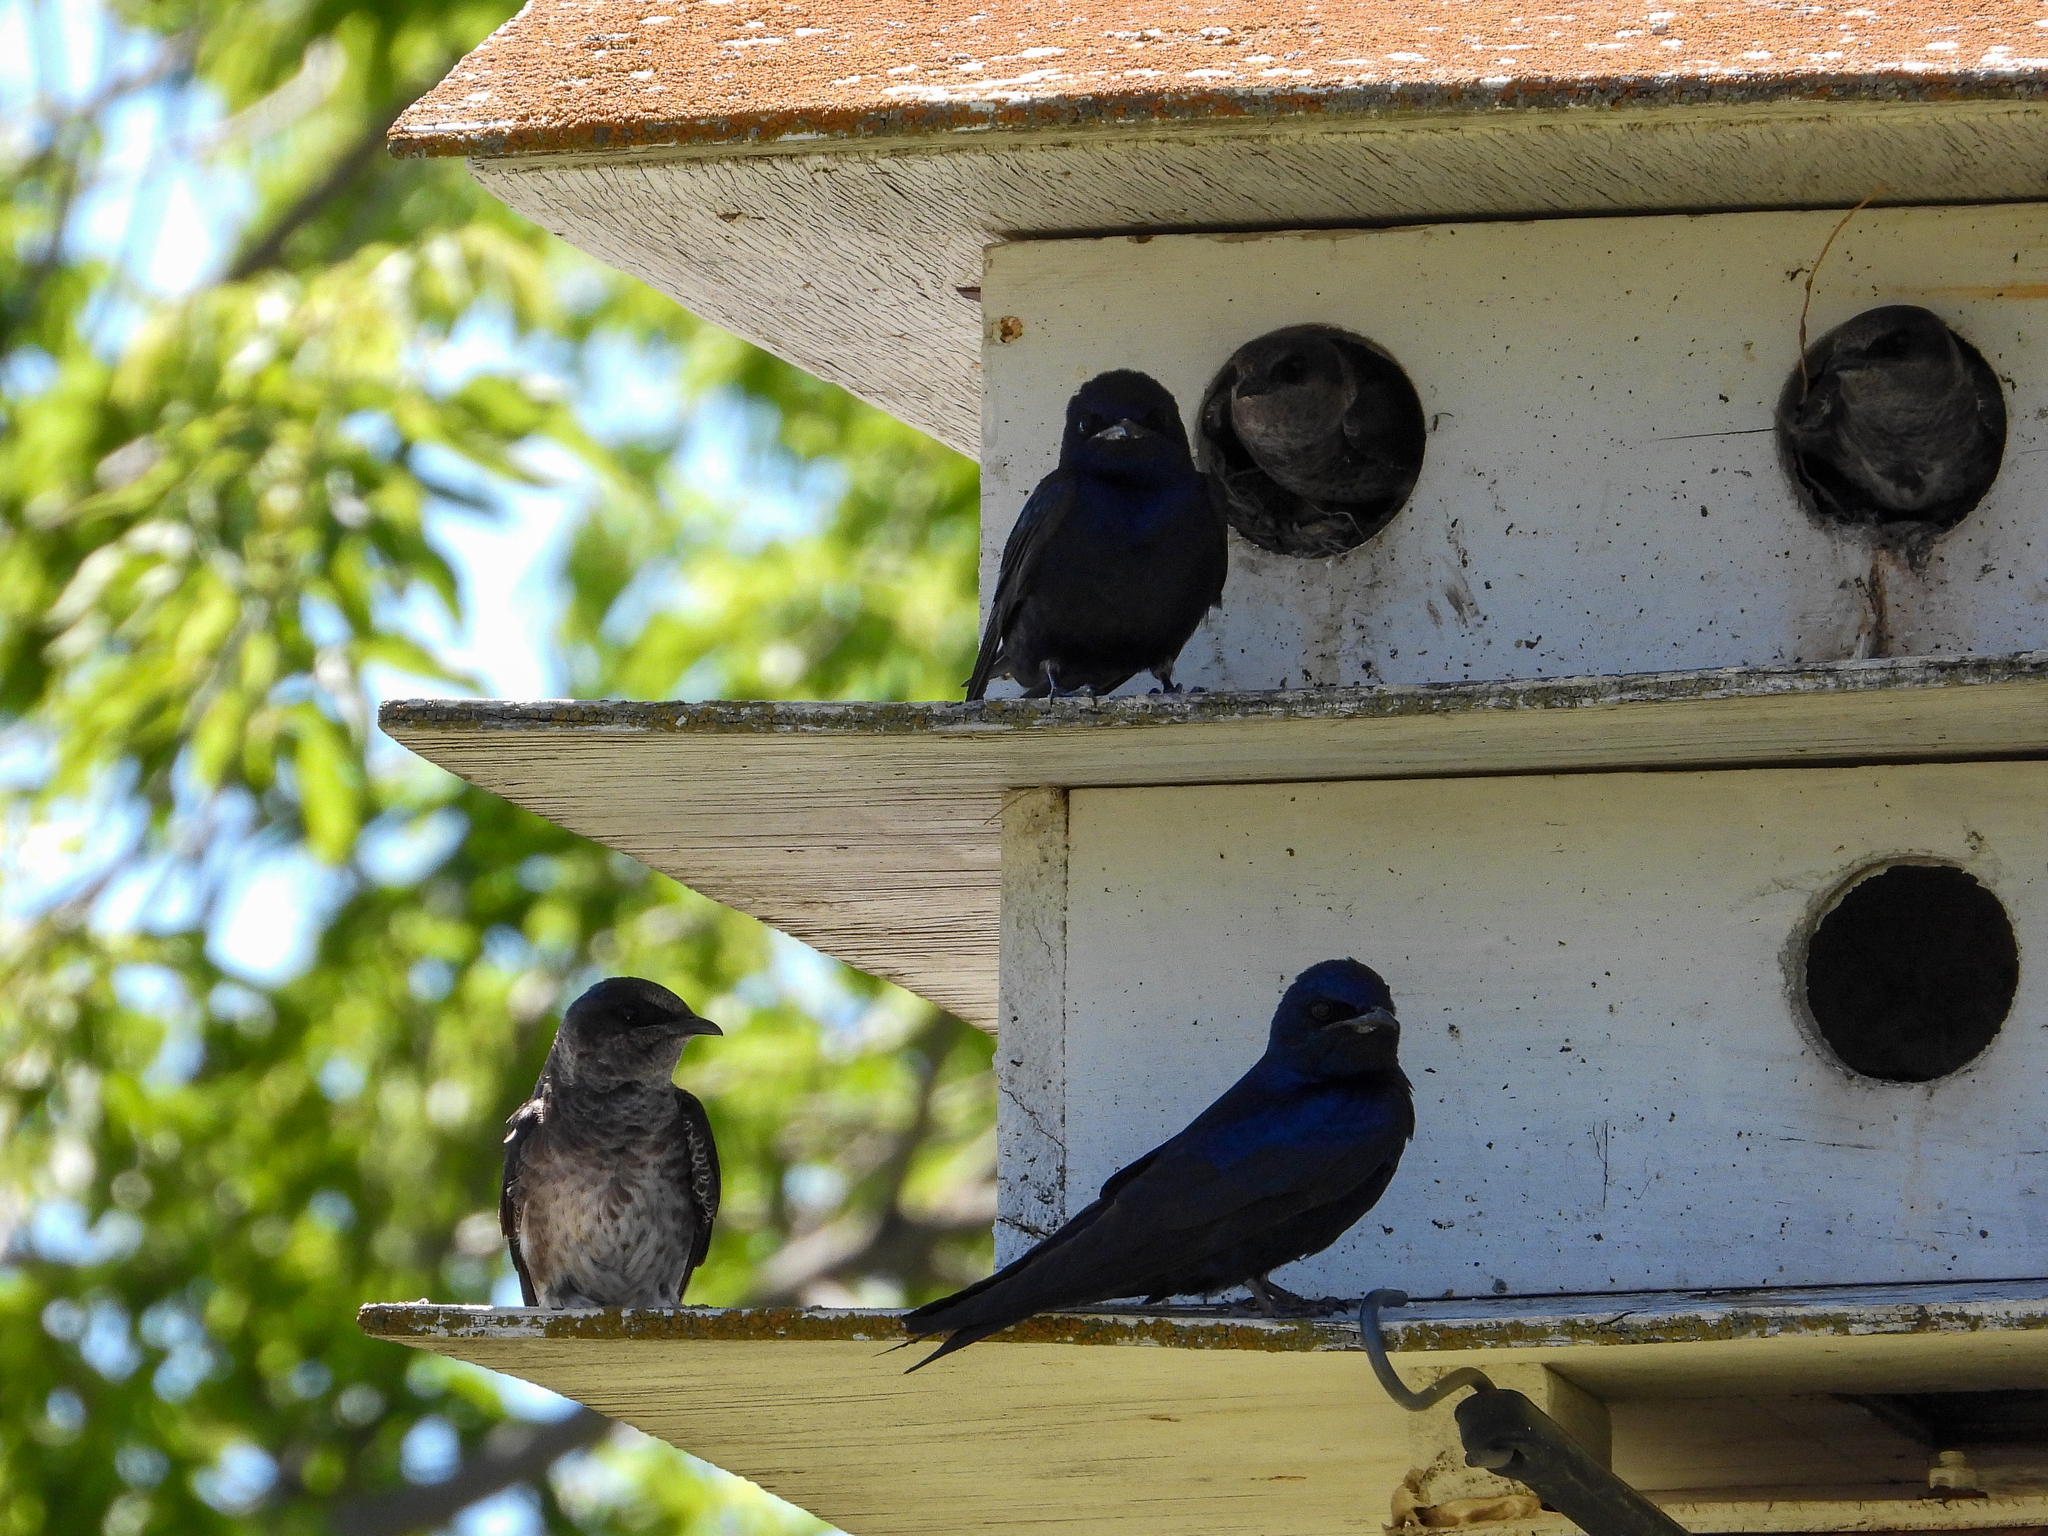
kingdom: Animalia
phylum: Chordata
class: Aves
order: Passeriformes
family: Hirundinidae
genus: Progne
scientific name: Progne subis
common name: Purple martin
